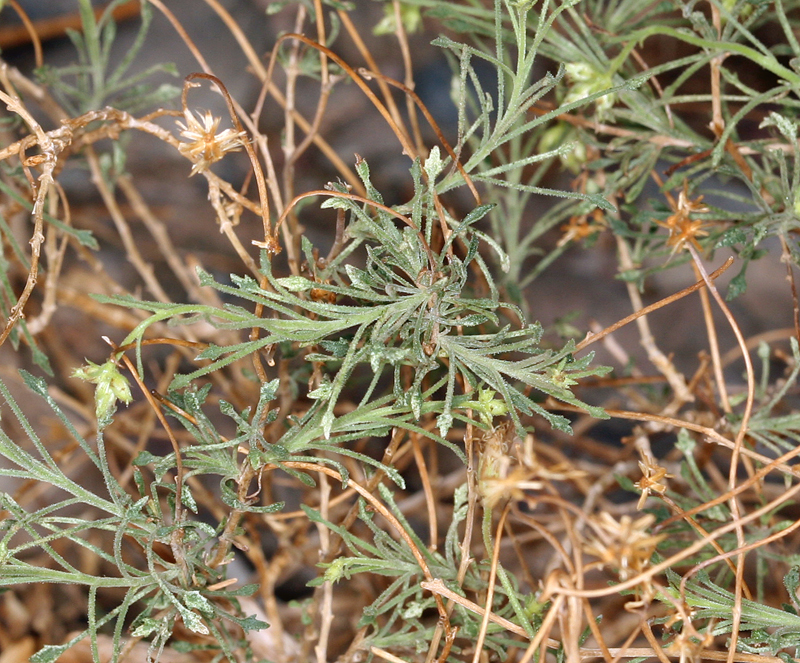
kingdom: Plantae
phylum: Tracheophyta
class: Magnoliopsida
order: Asterales
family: Asteraceae
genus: Pleurocoronis
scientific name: Pleurocoronis pluriseta
